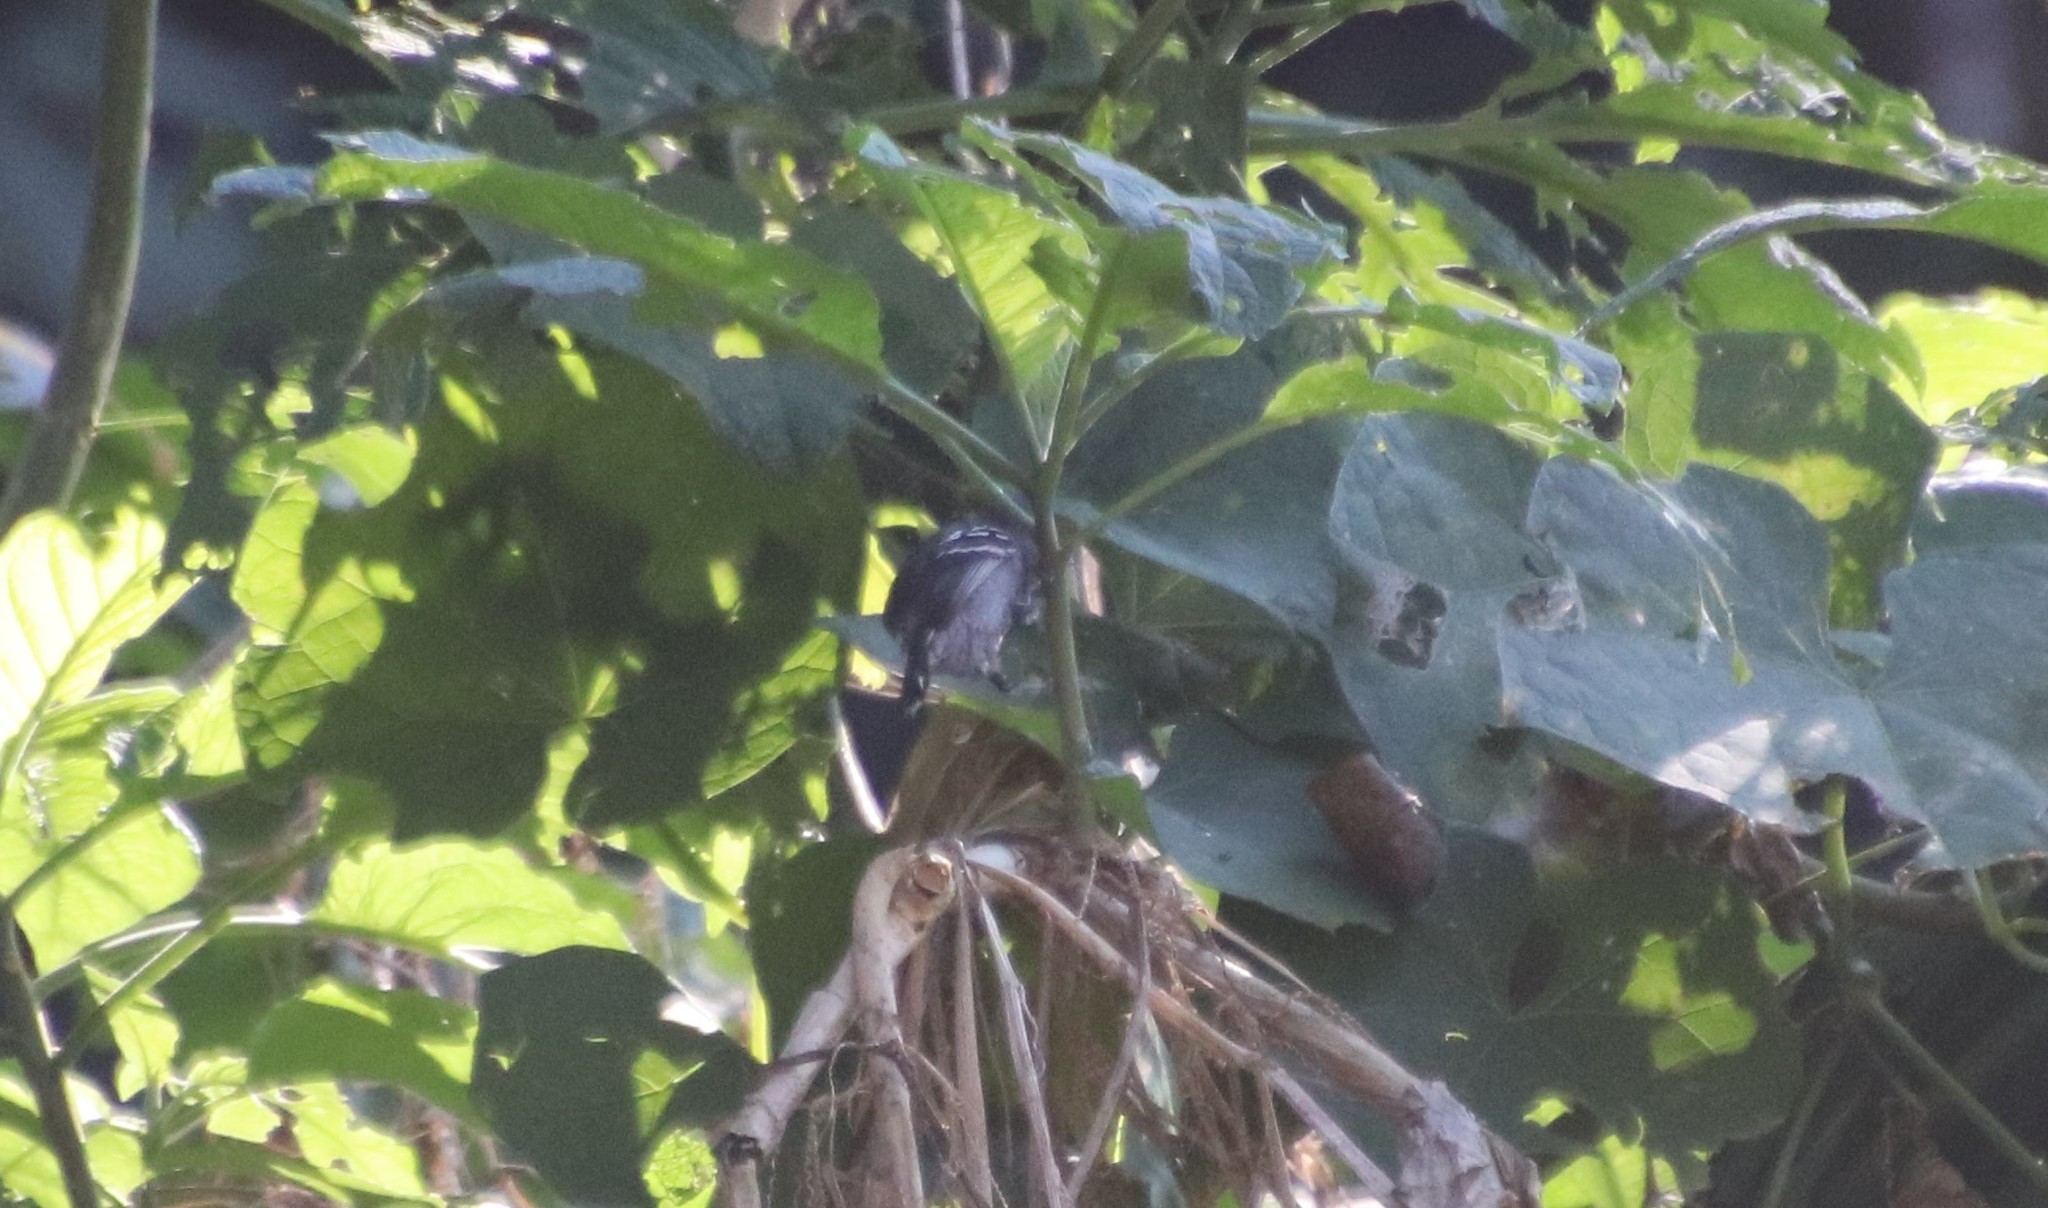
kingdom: Animalia
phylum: Chordata
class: Aves
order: Passeriformes
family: Thamnophilidae
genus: Thamnophilus
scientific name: Thamnophilus caerulescens
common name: Variable antshrike
